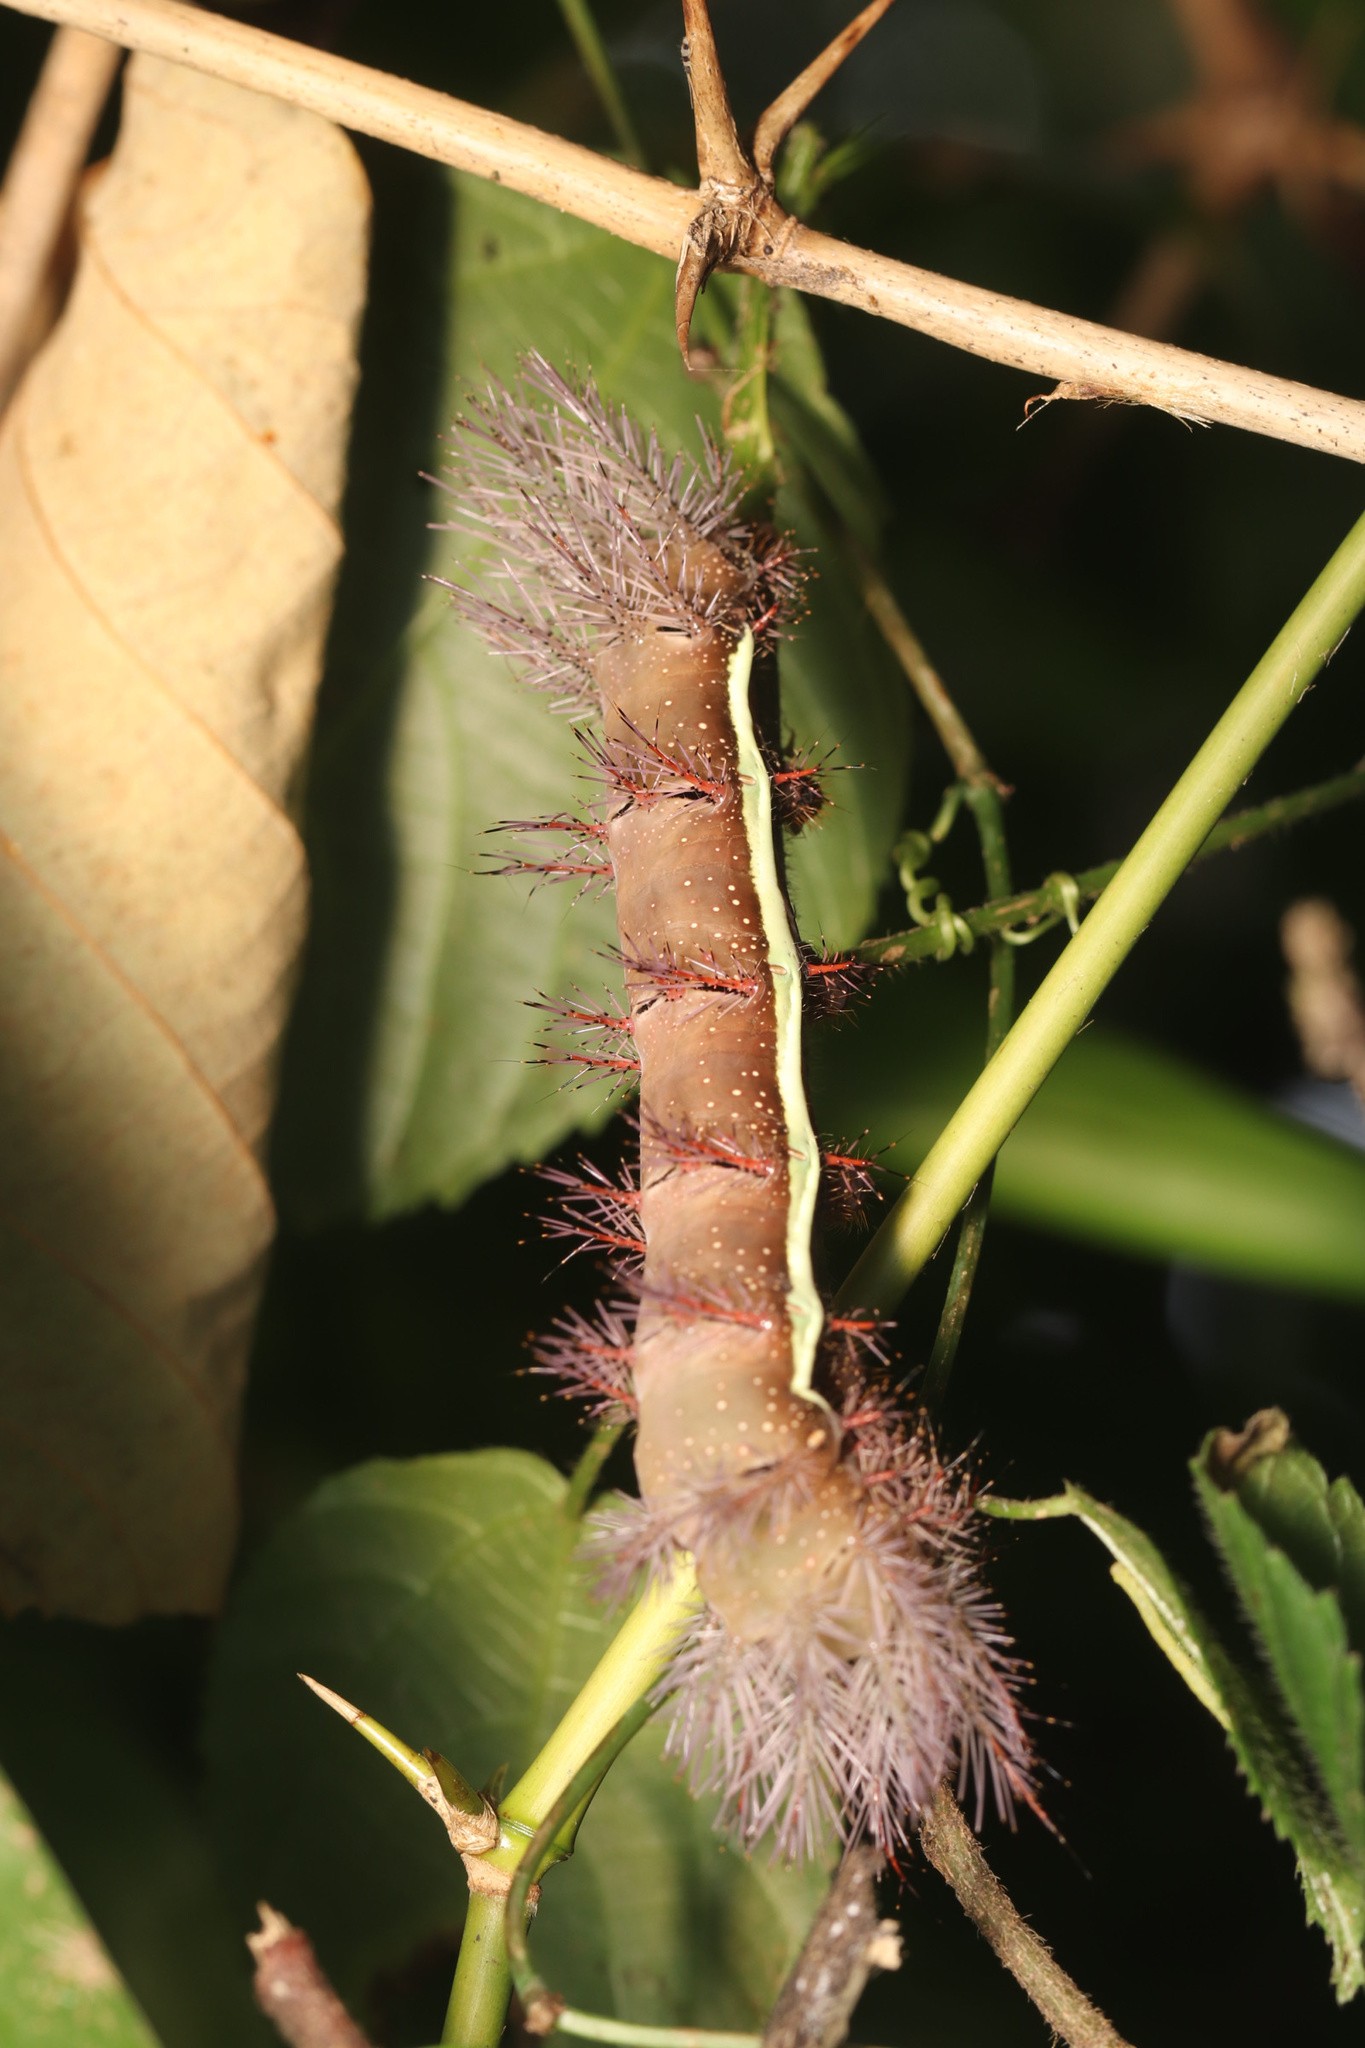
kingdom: Animalia
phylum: Arthropoda
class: Insecta
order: Lepidoptera
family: Saturniidae
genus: Automeris
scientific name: Automeris banus
